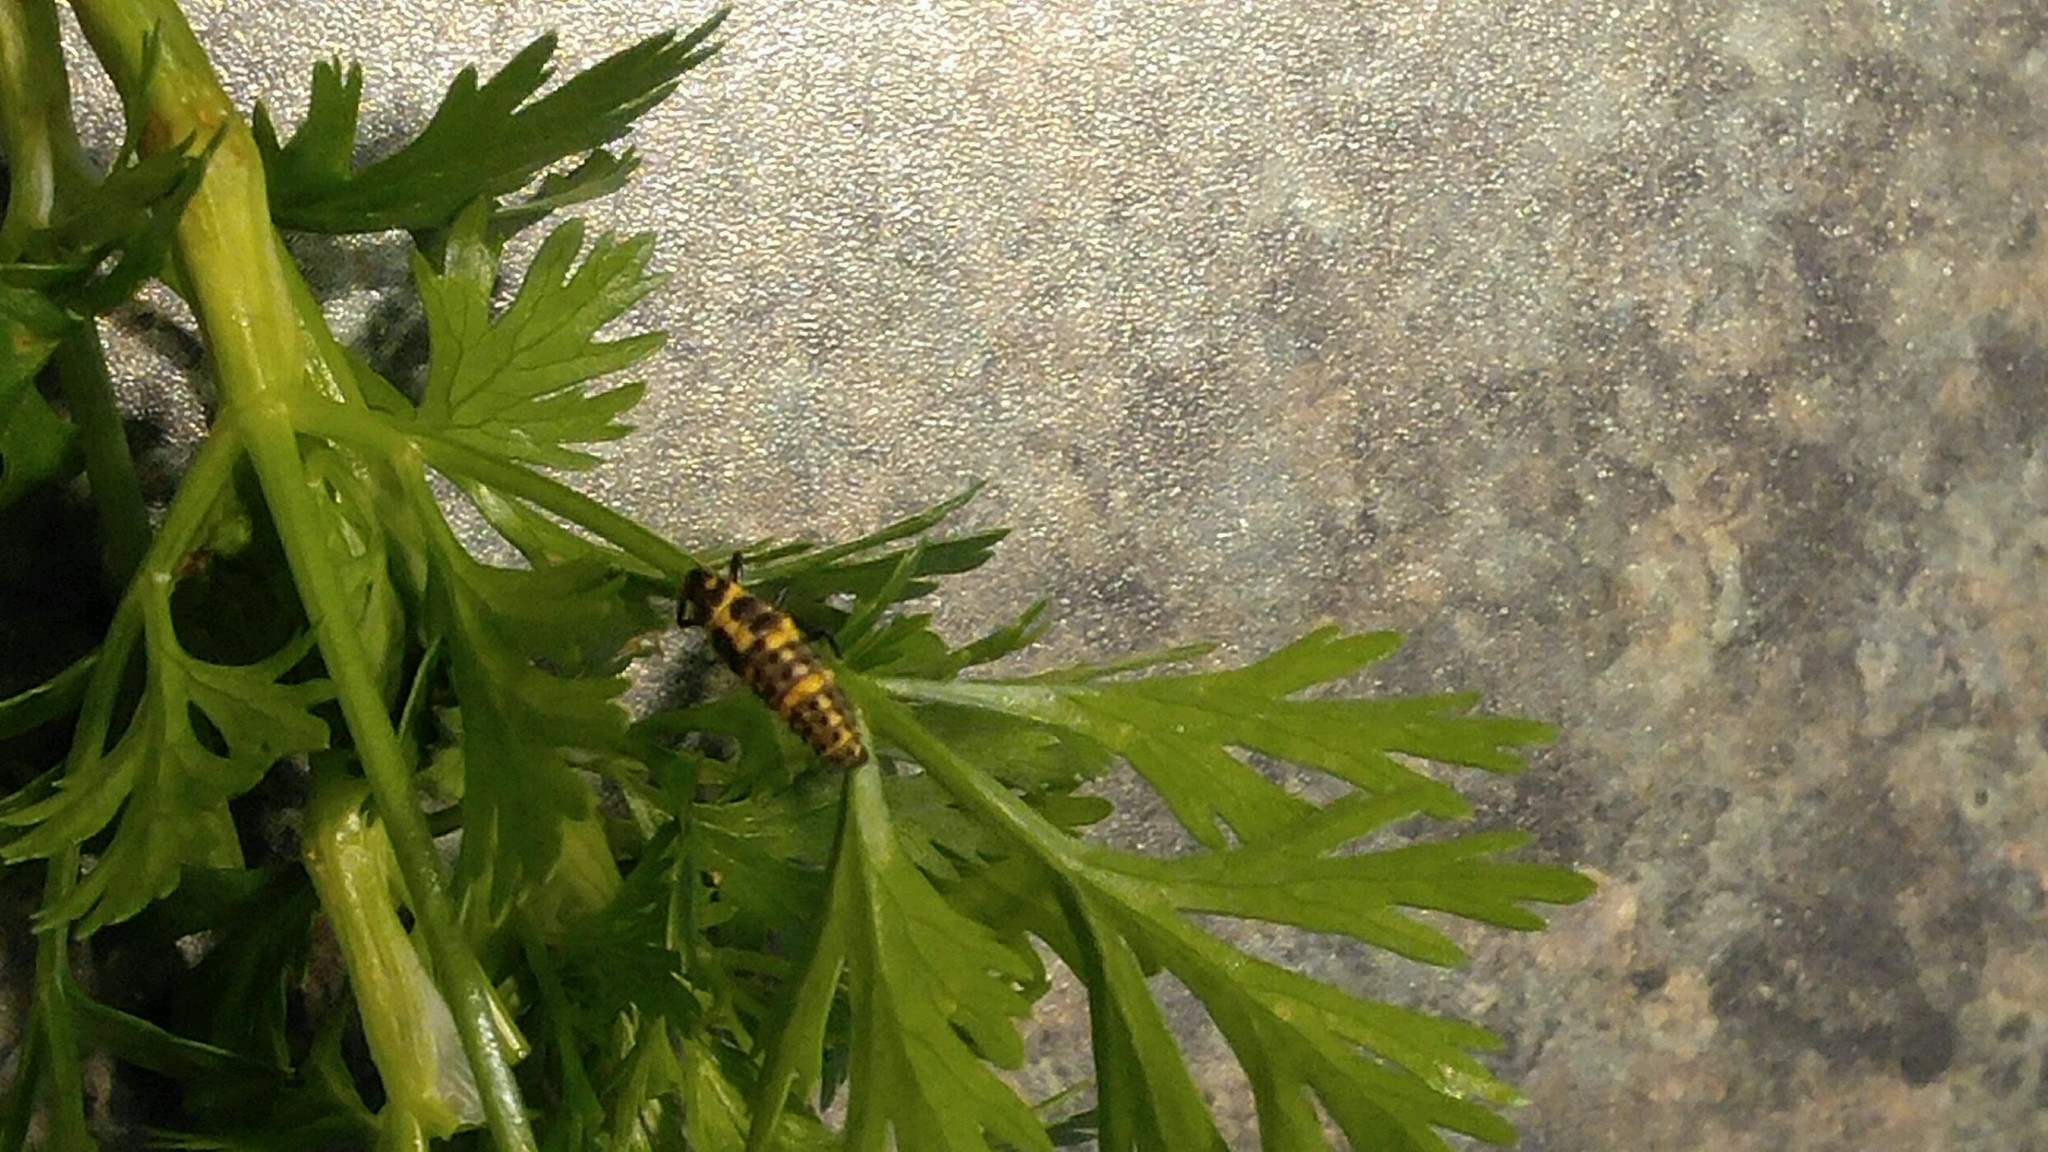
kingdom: Animalia
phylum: Arthropoda
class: Insecta
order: Coleoptera
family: Coccinellidae
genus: Coleomegilla
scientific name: Coleomegilla maculata
